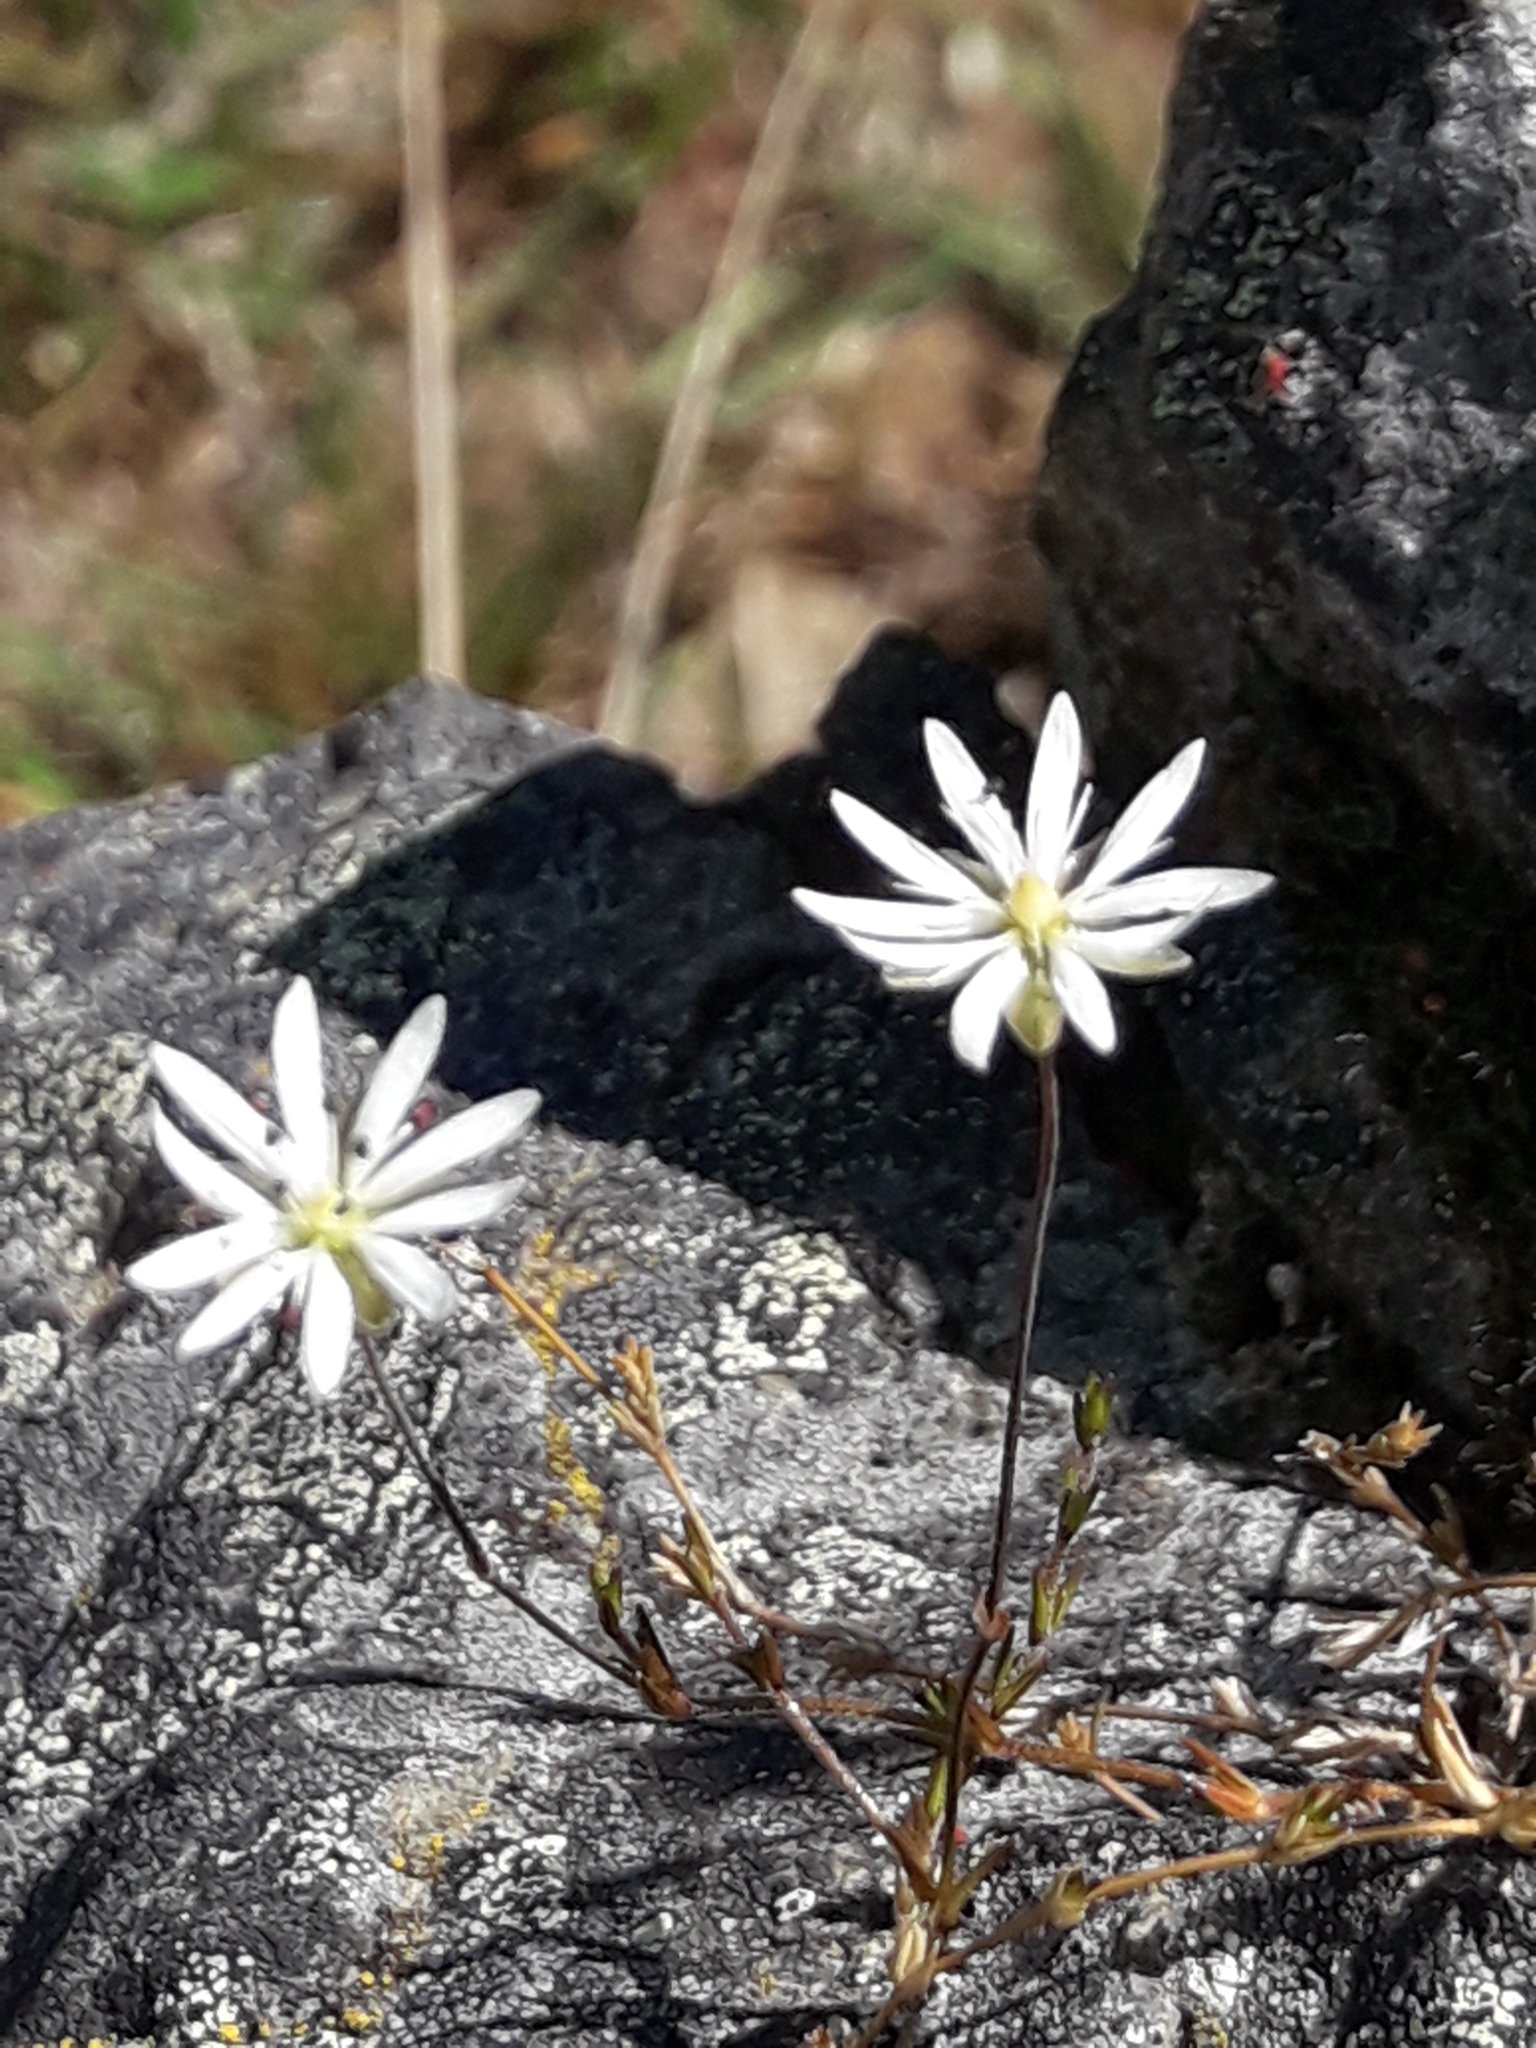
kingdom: Plantae
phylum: Tracheophyta
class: Magnoliopsida
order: Caryophyllales
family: Caryophyllaceae
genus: Stellaria
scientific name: Stellaria gracilenta
